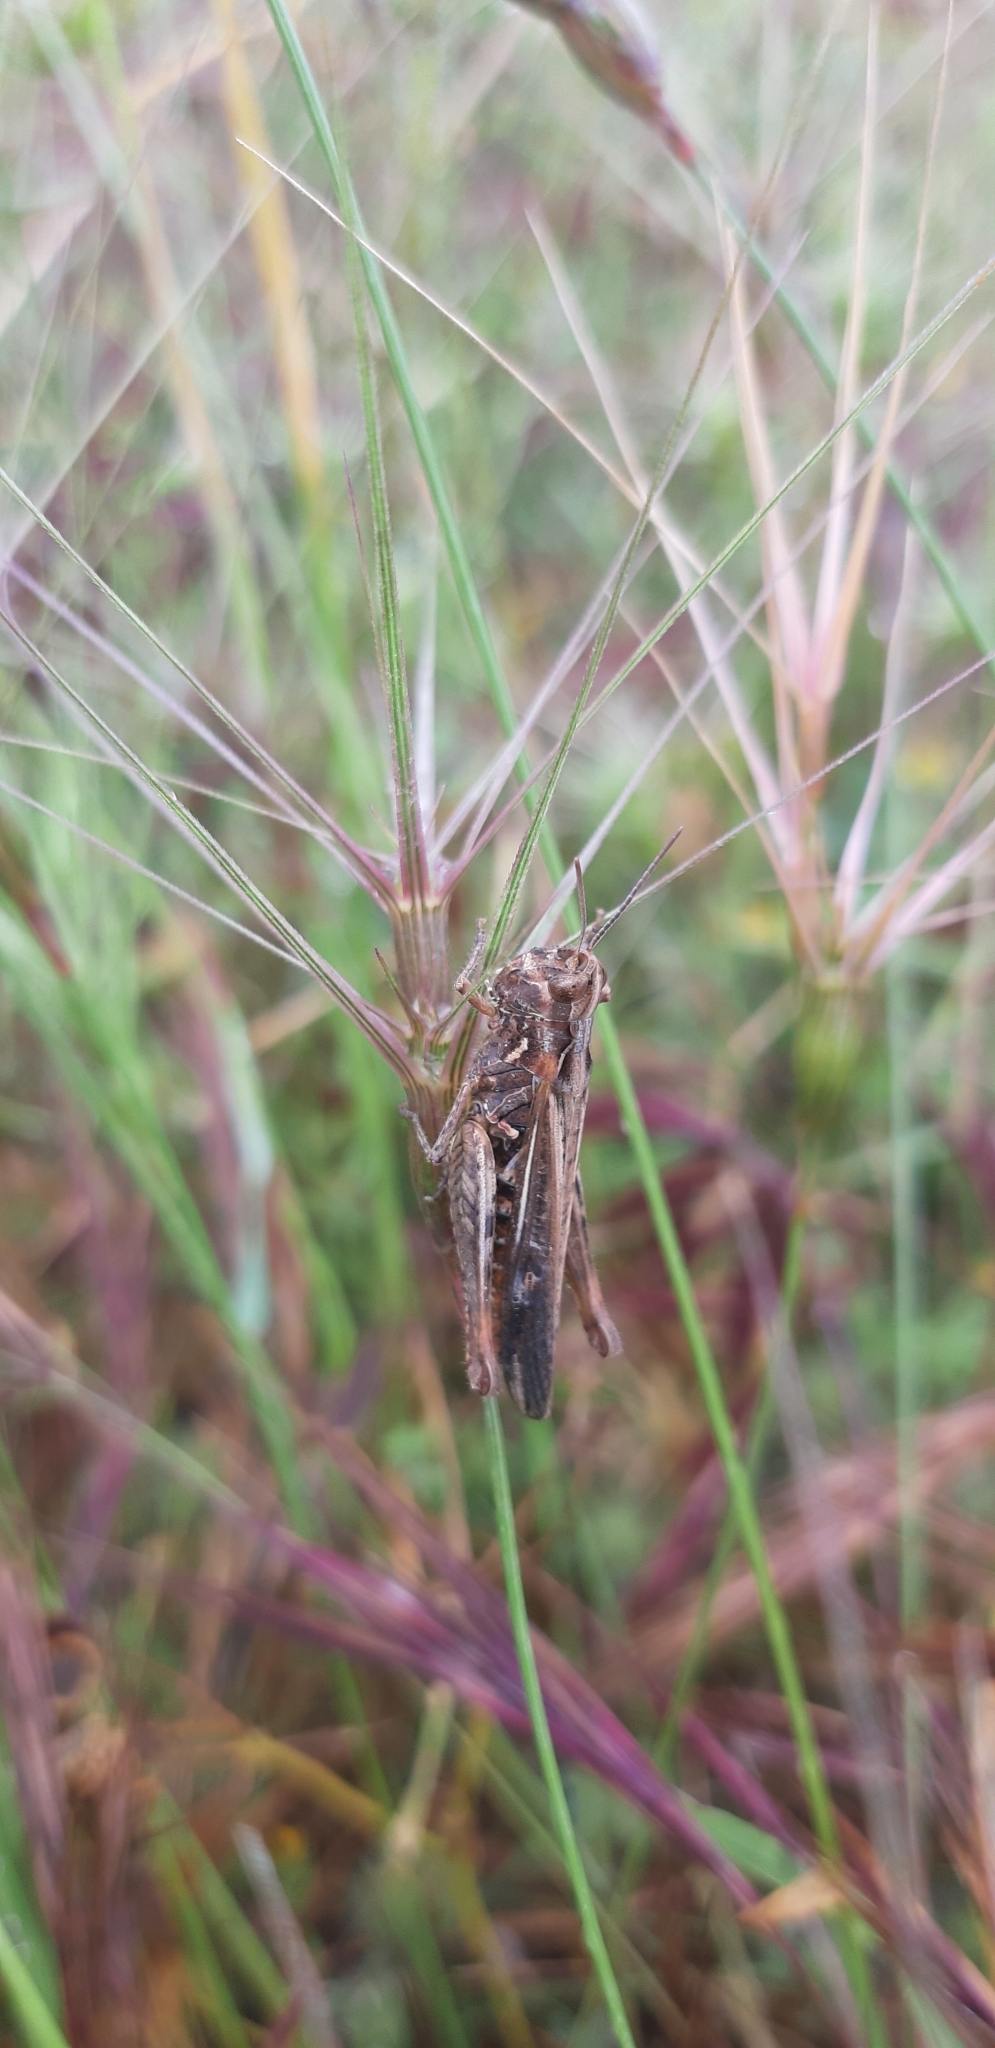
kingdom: Animalia
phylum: Arthropoda
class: Insecta
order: Orthoptera
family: Acrididae
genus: Chorthippus
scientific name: Chorthippus brunneus
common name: Field grasshopper
